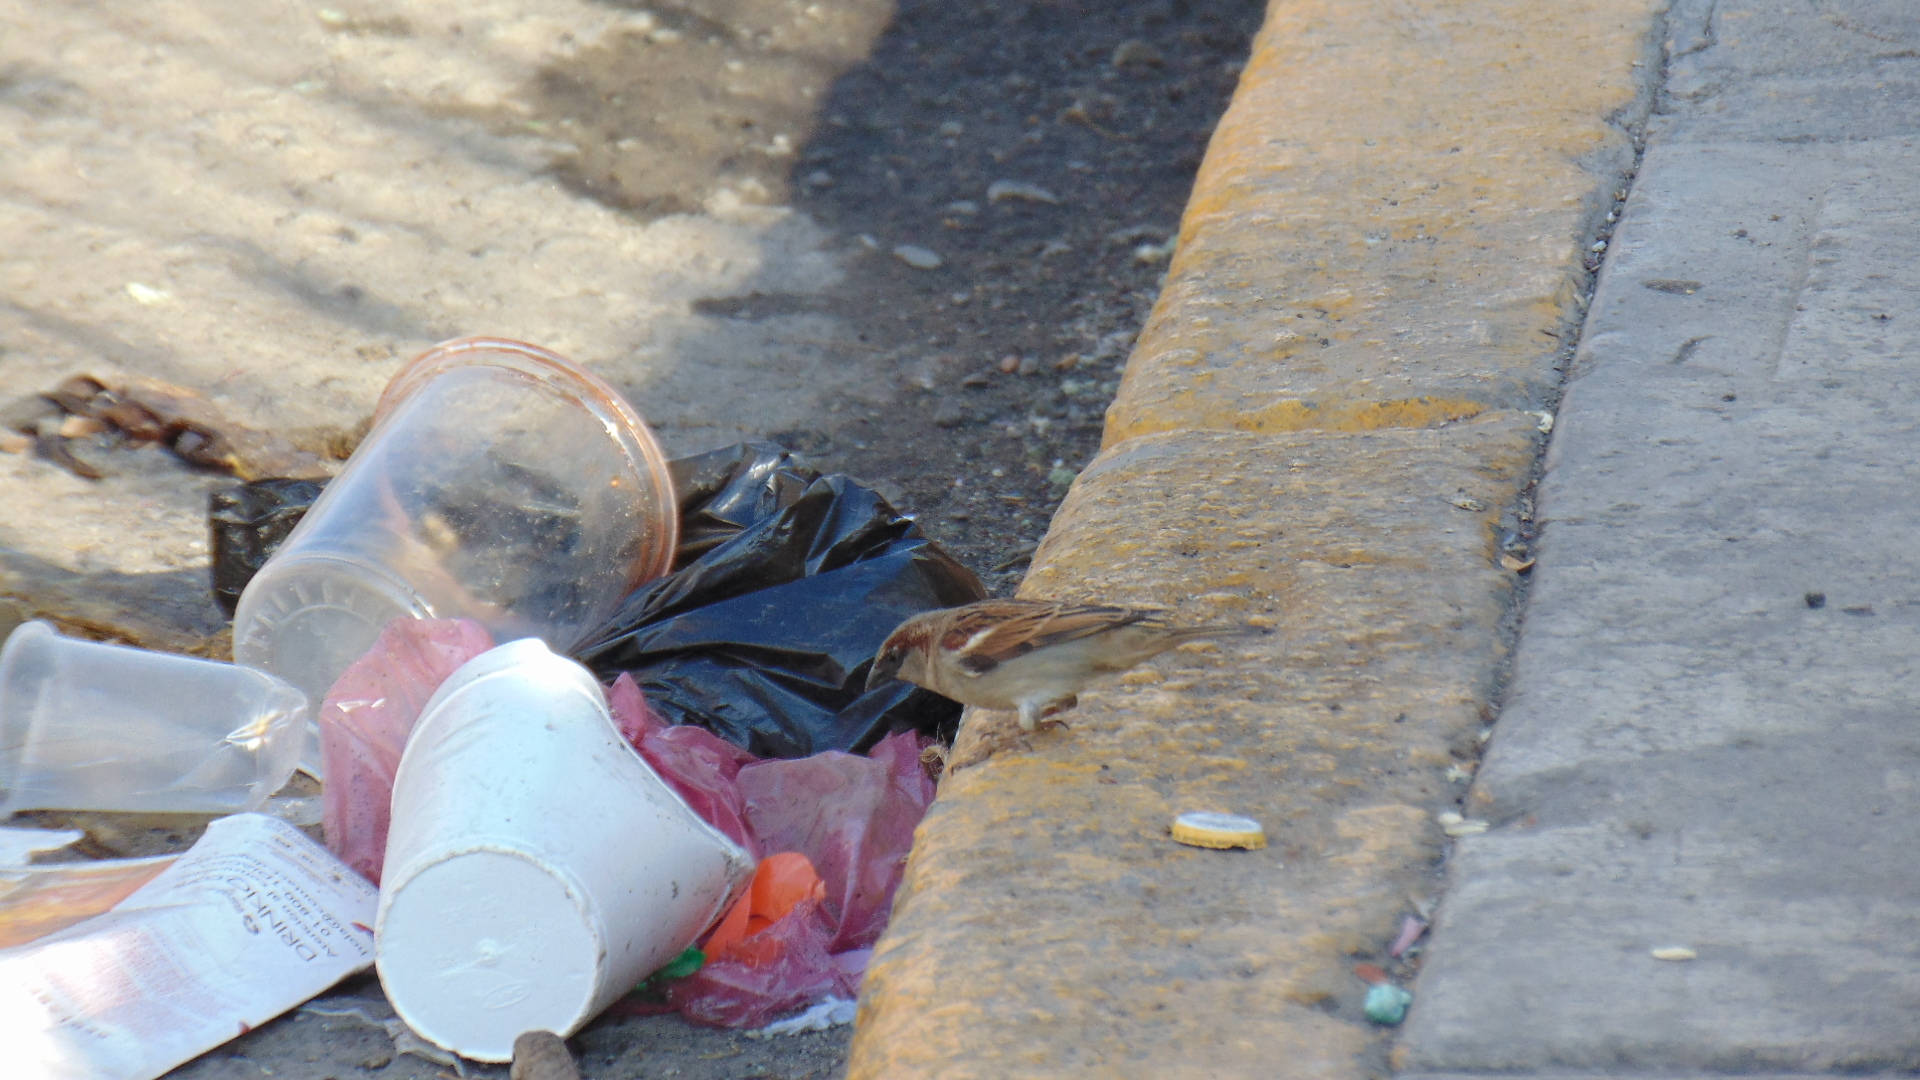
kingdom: Animalia
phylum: Chordata
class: Aves
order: Passeriformes
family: Passeridae
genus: Passer
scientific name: Passer domesticus
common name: House sparrow
